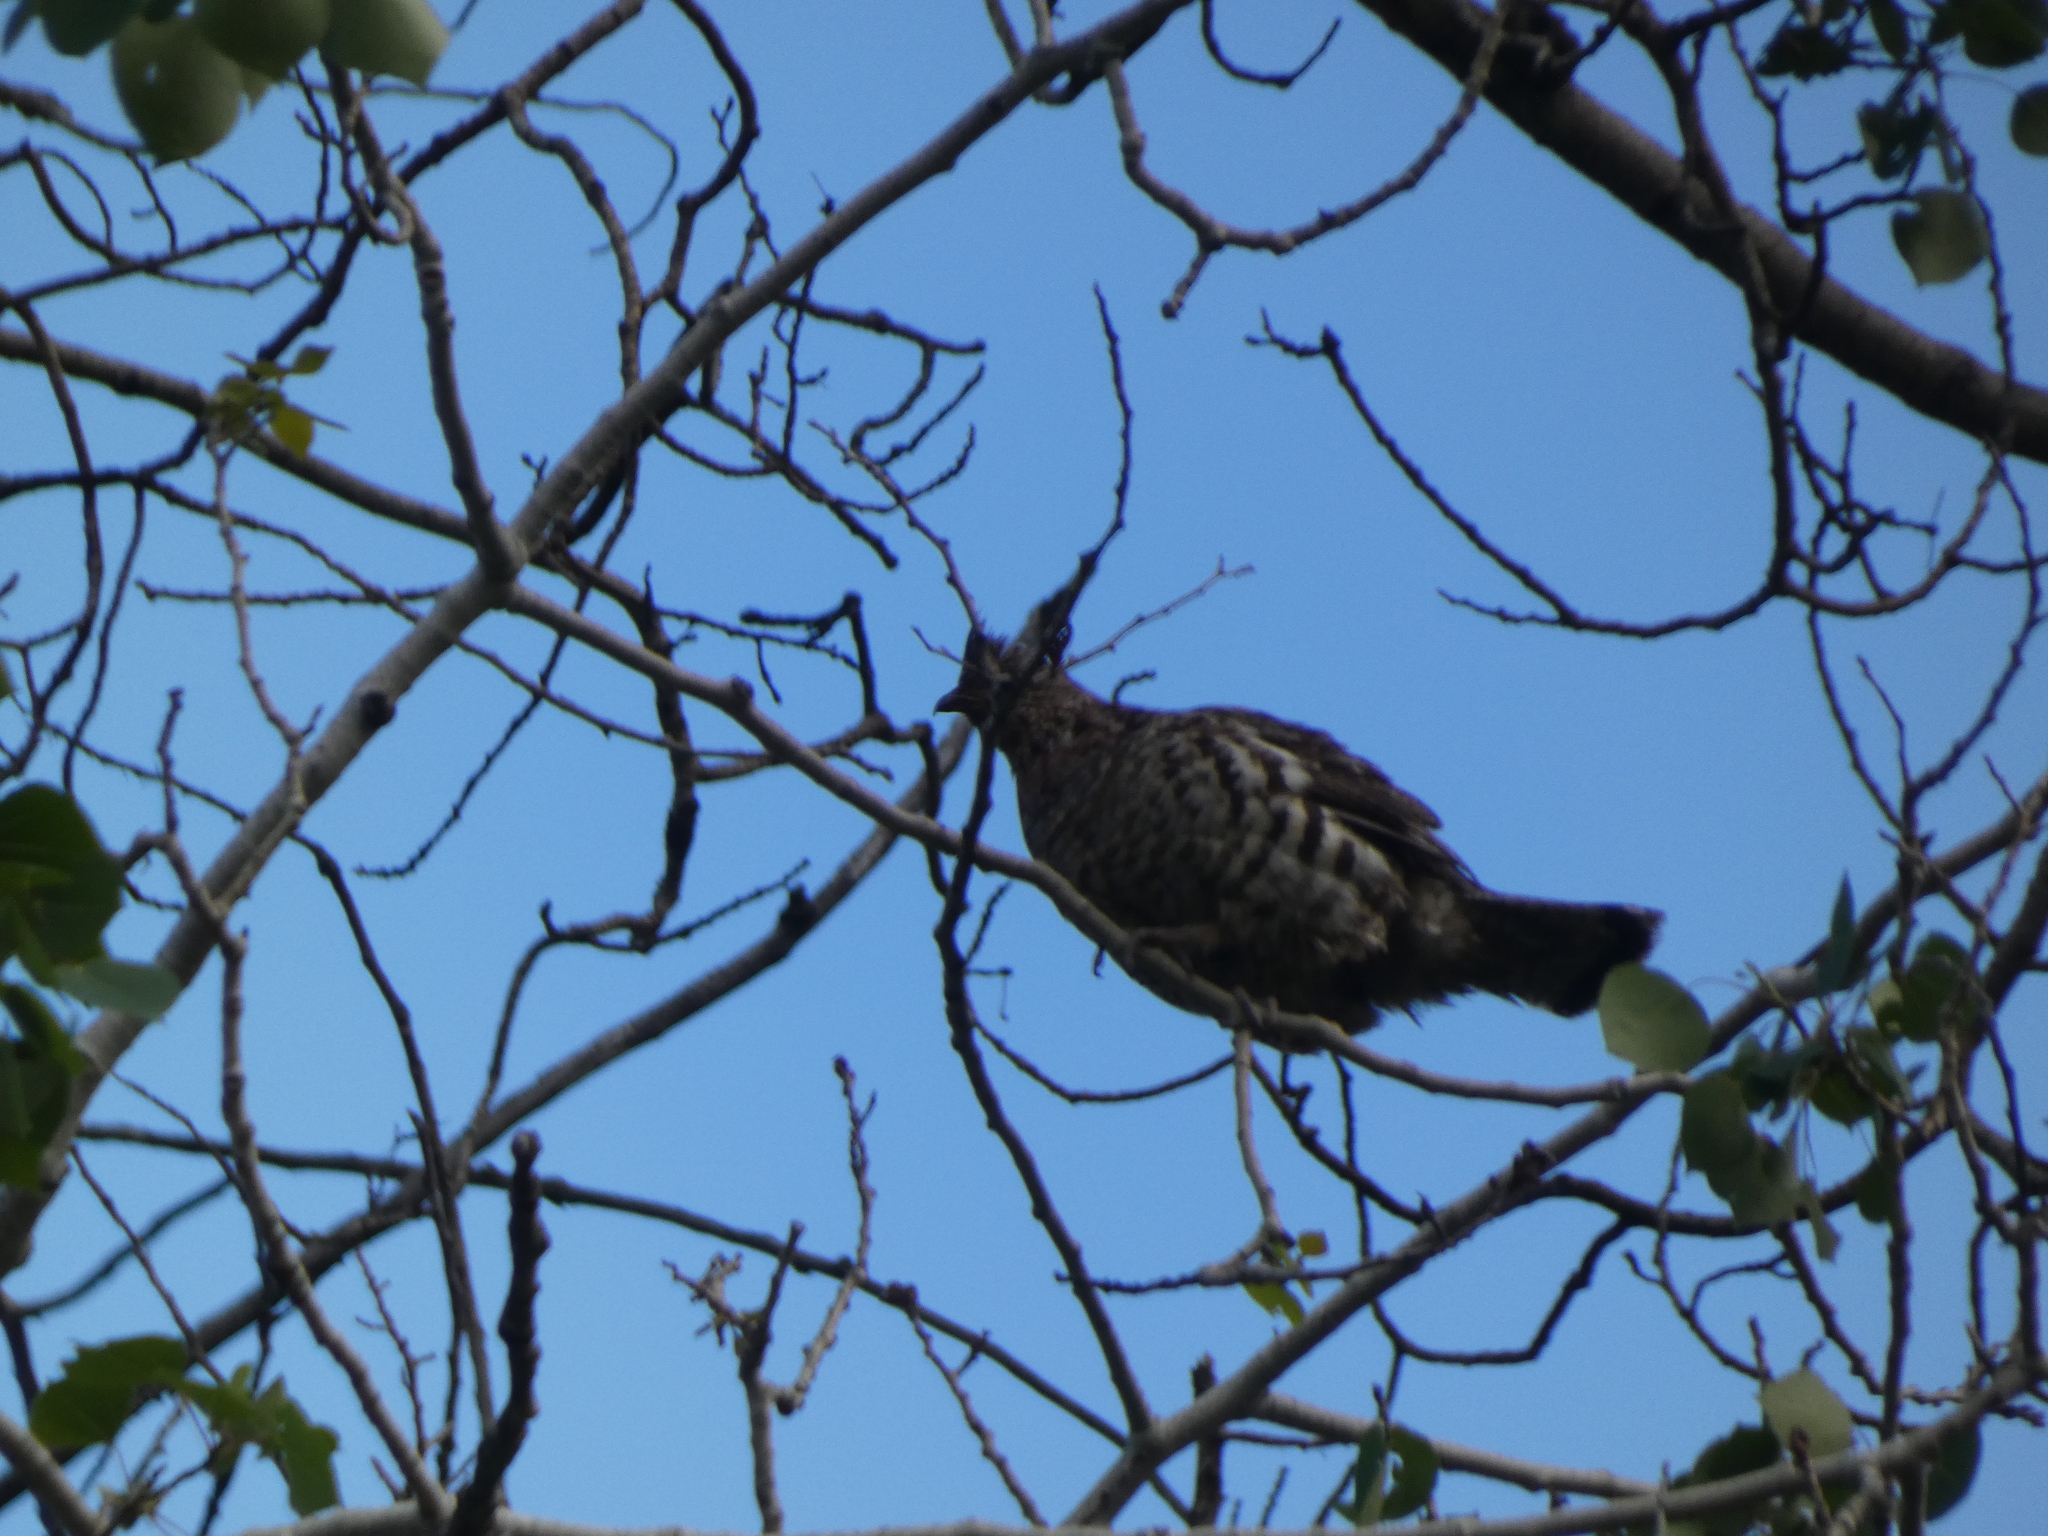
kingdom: Animalia
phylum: Chordata
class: Aves
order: Galliformes
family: Phasianidae
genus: Bonasa
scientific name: Bonasa umbellus
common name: Ruffed grouse
